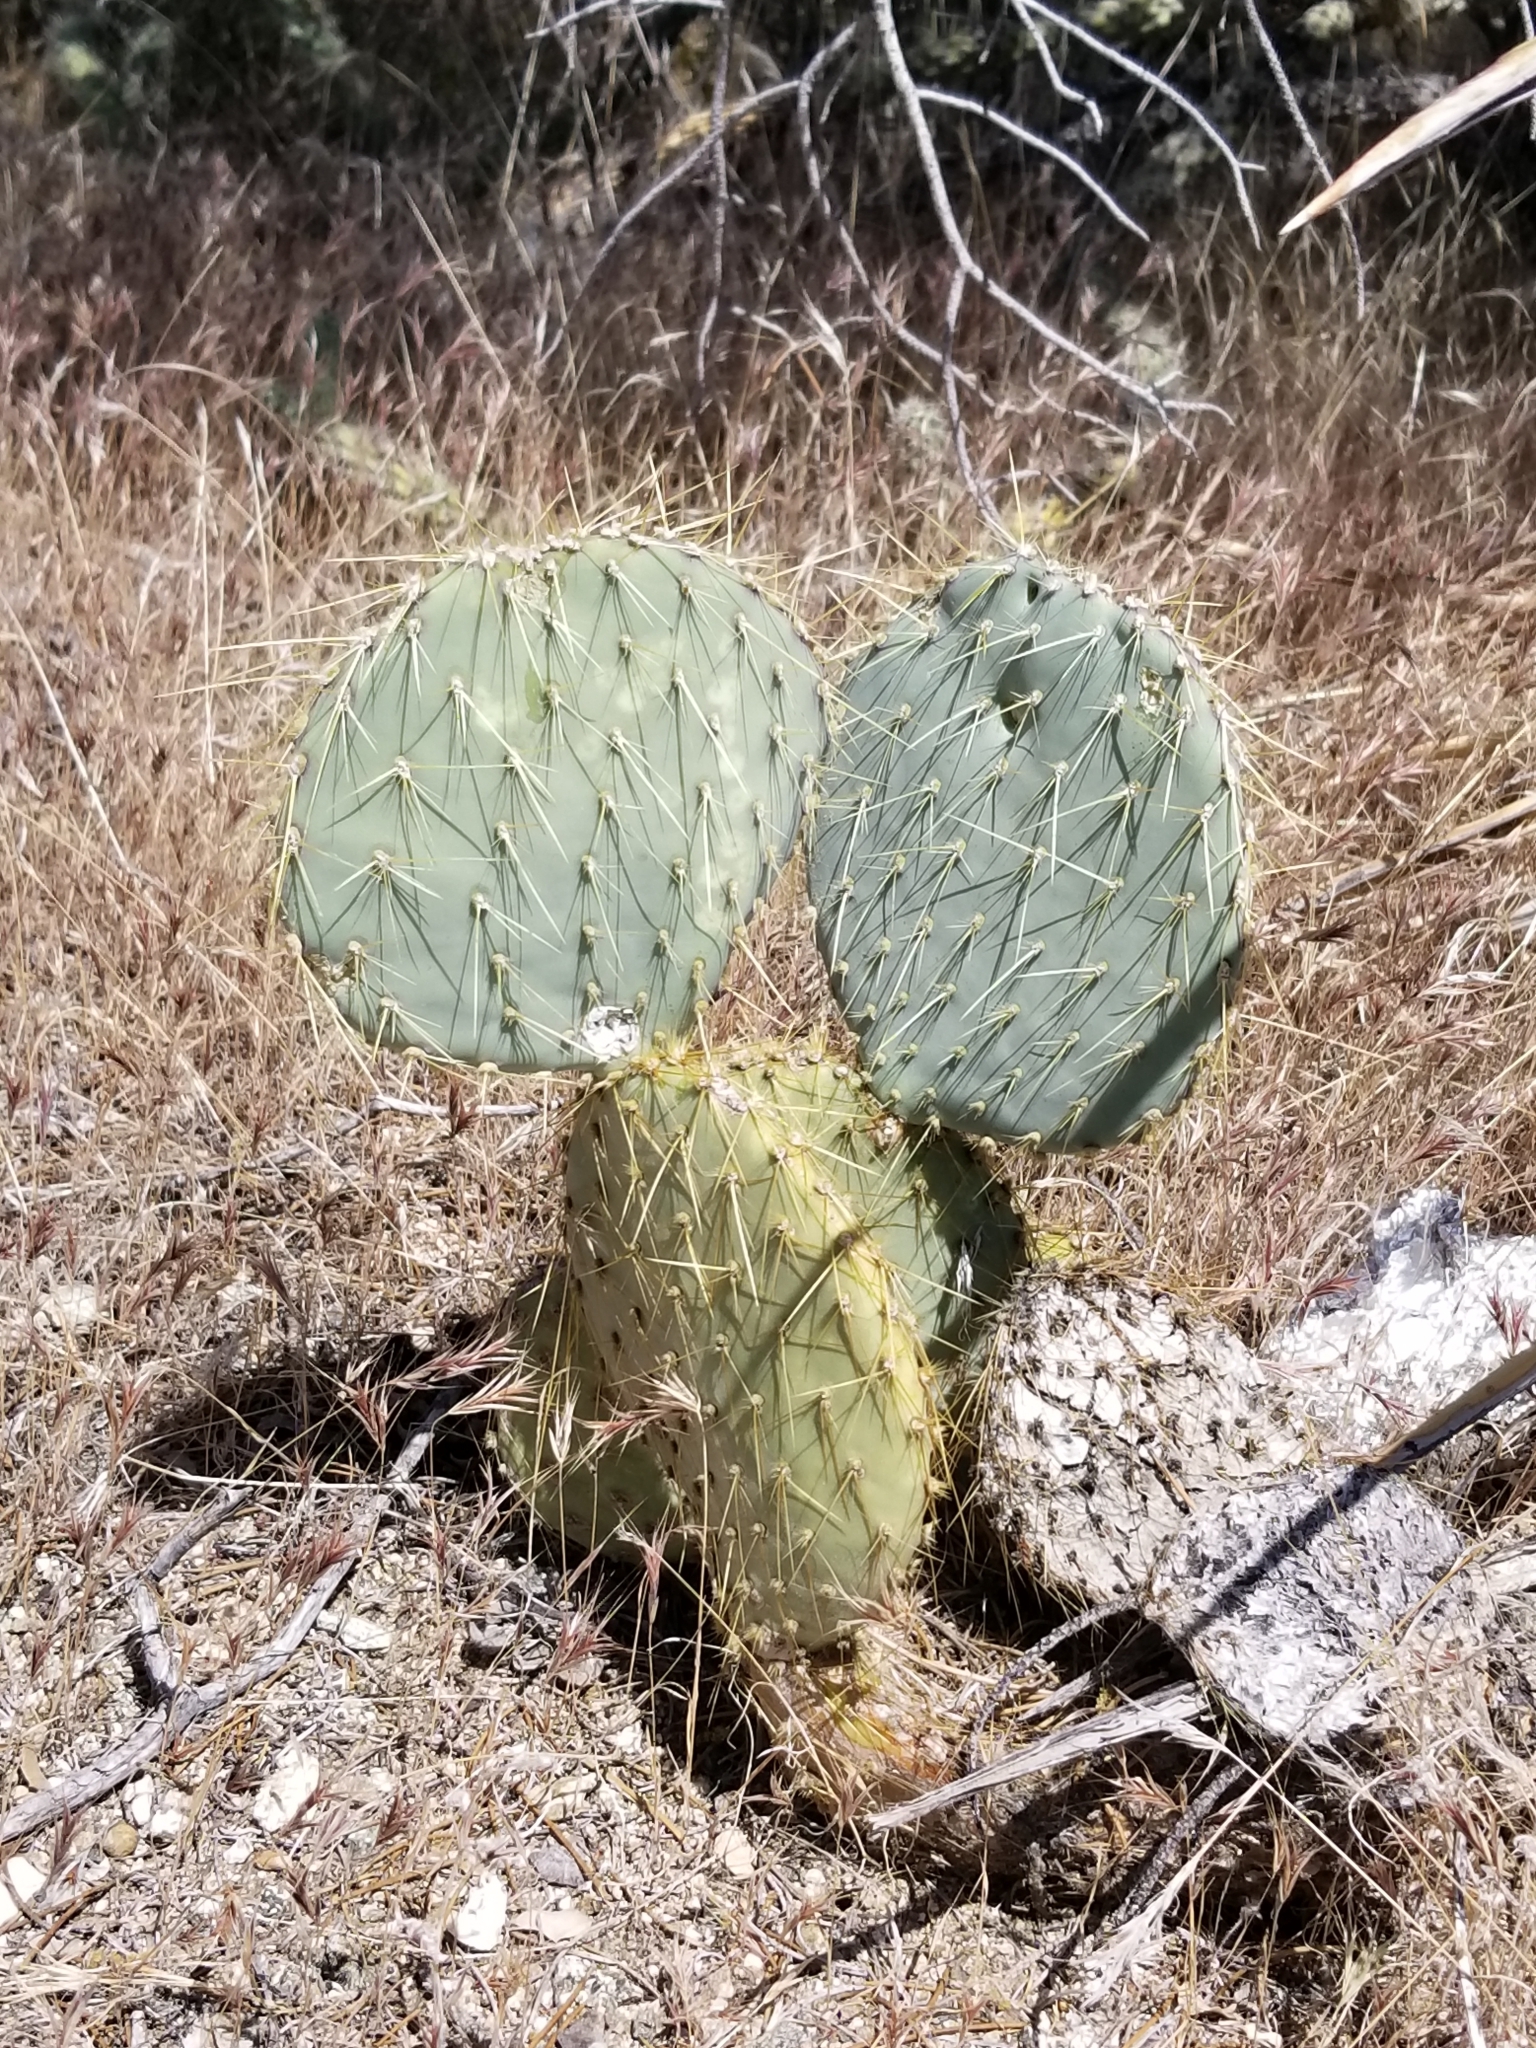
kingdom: Plantae
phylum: Tracheophyta
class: Magnoliopsida
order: Caryophyllales
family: Cactaceae
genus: Opuntia
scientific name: Opuntia chlorotica
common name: Dollar-joint prickly-pear
